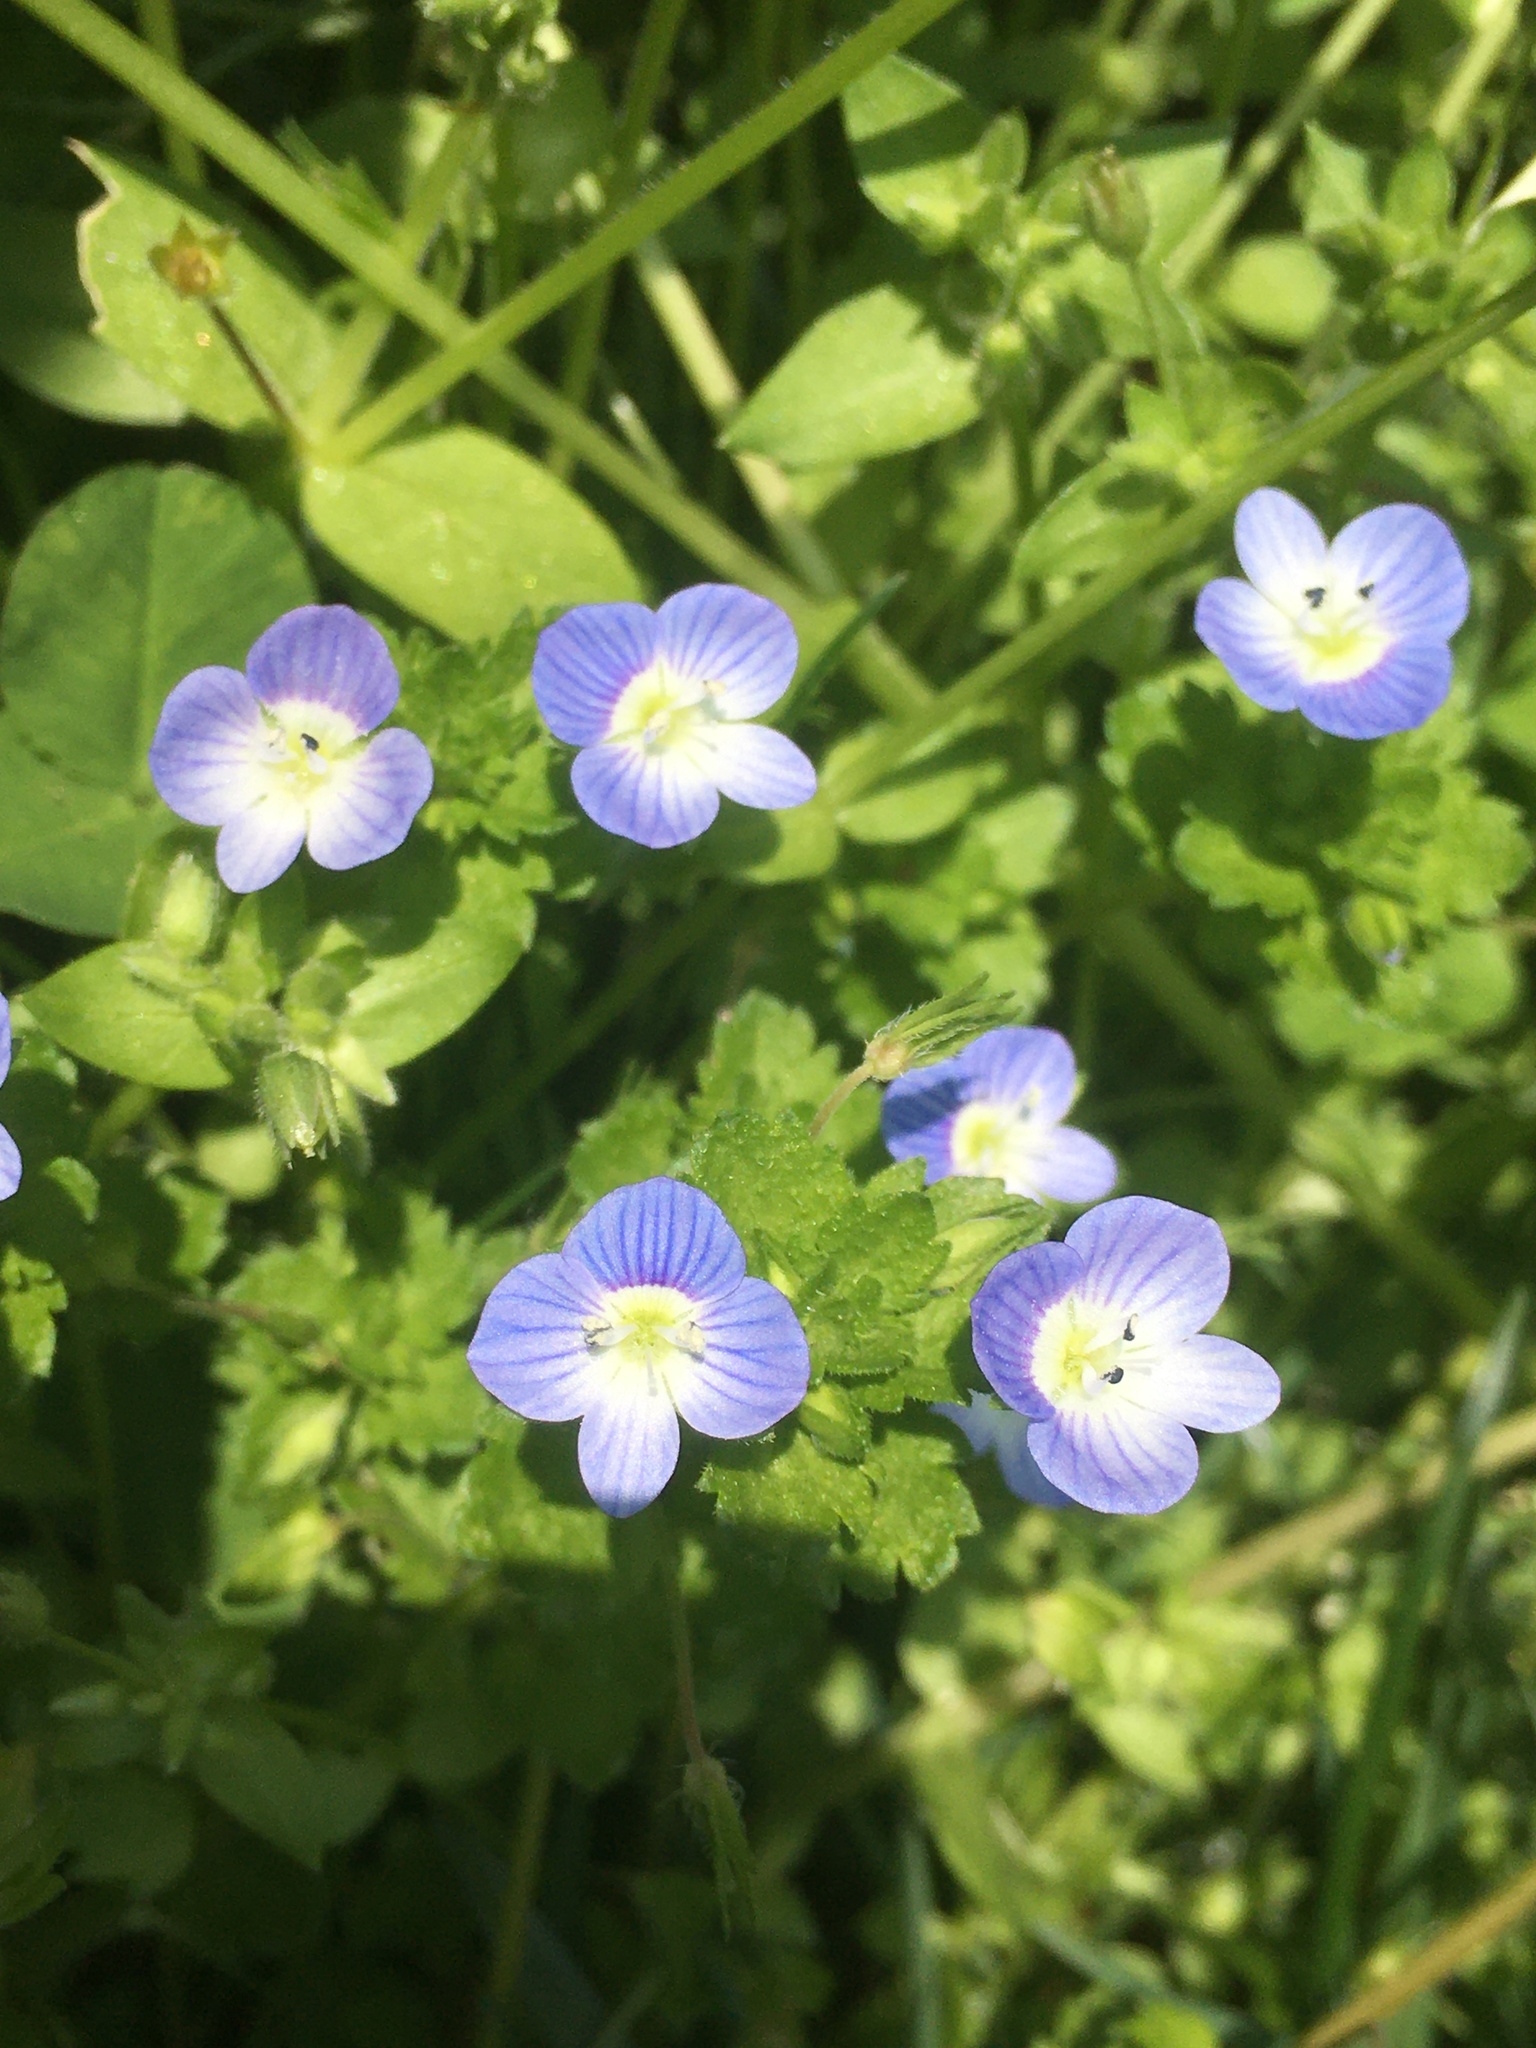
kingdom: Plantae
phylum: Tracheophyta
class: Magnoliopsida
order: Lamiales
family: Plantaginaceae
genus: Veronica
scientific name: Veronica persica
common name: Common field-speedwell
